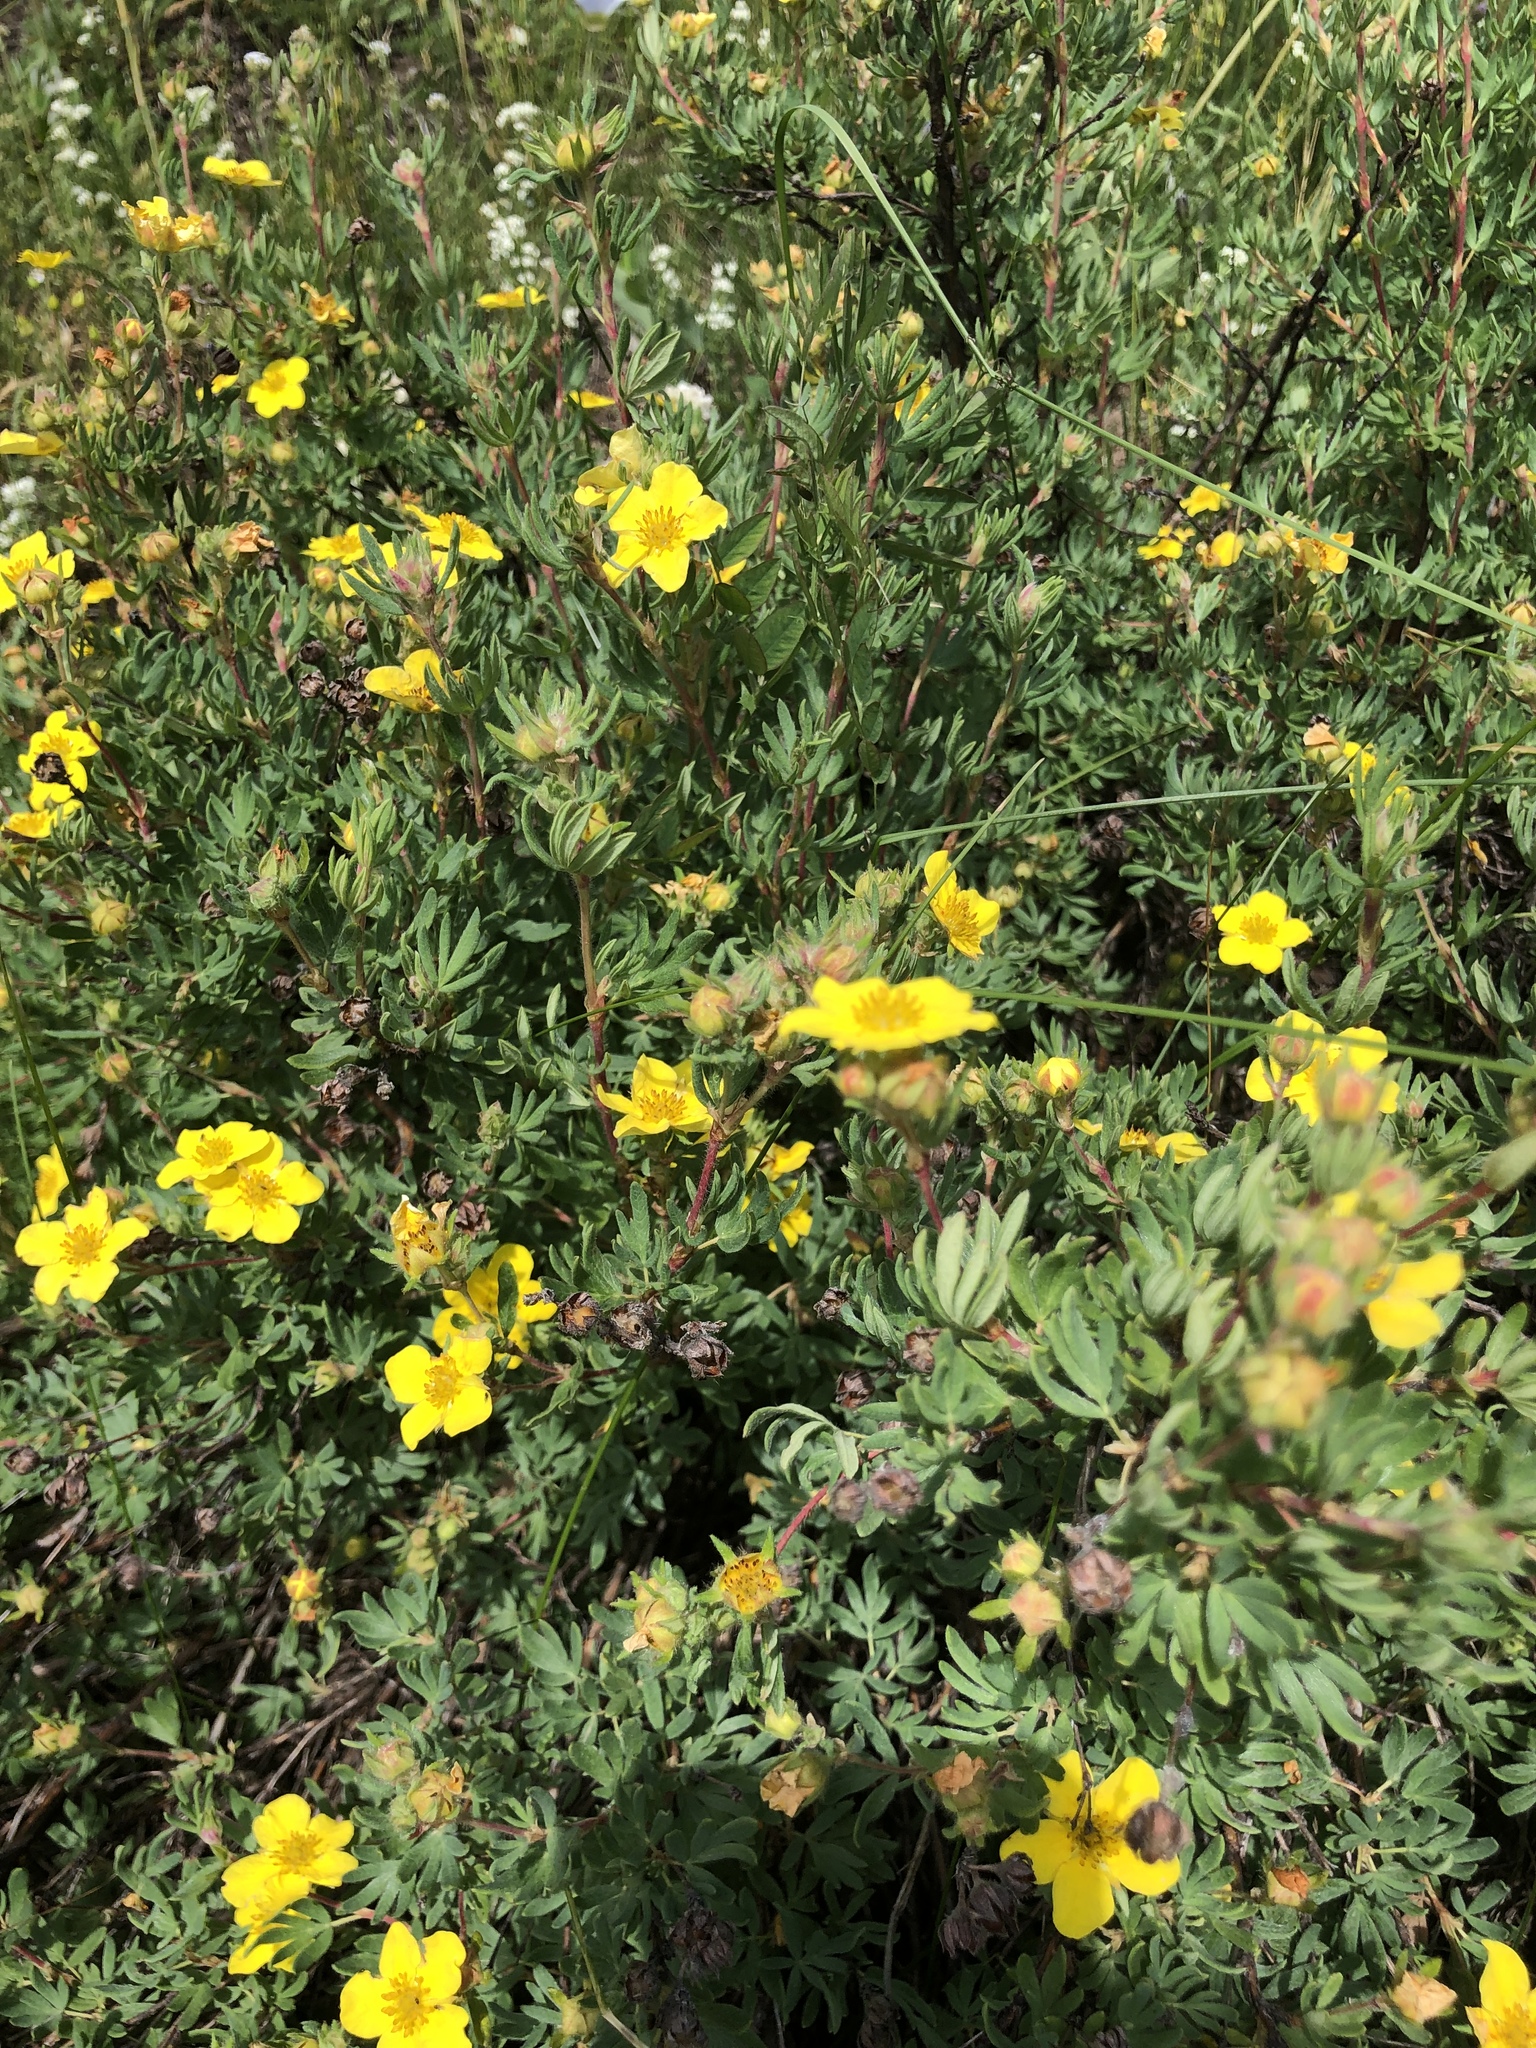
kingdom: Plantae
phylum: Tracheophyta
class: Magnoliopsida
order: Rosales
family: Rosaceae
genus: Dasiphora
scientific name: Dasiphora fruticosa
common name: Shrubby cinquefoil
